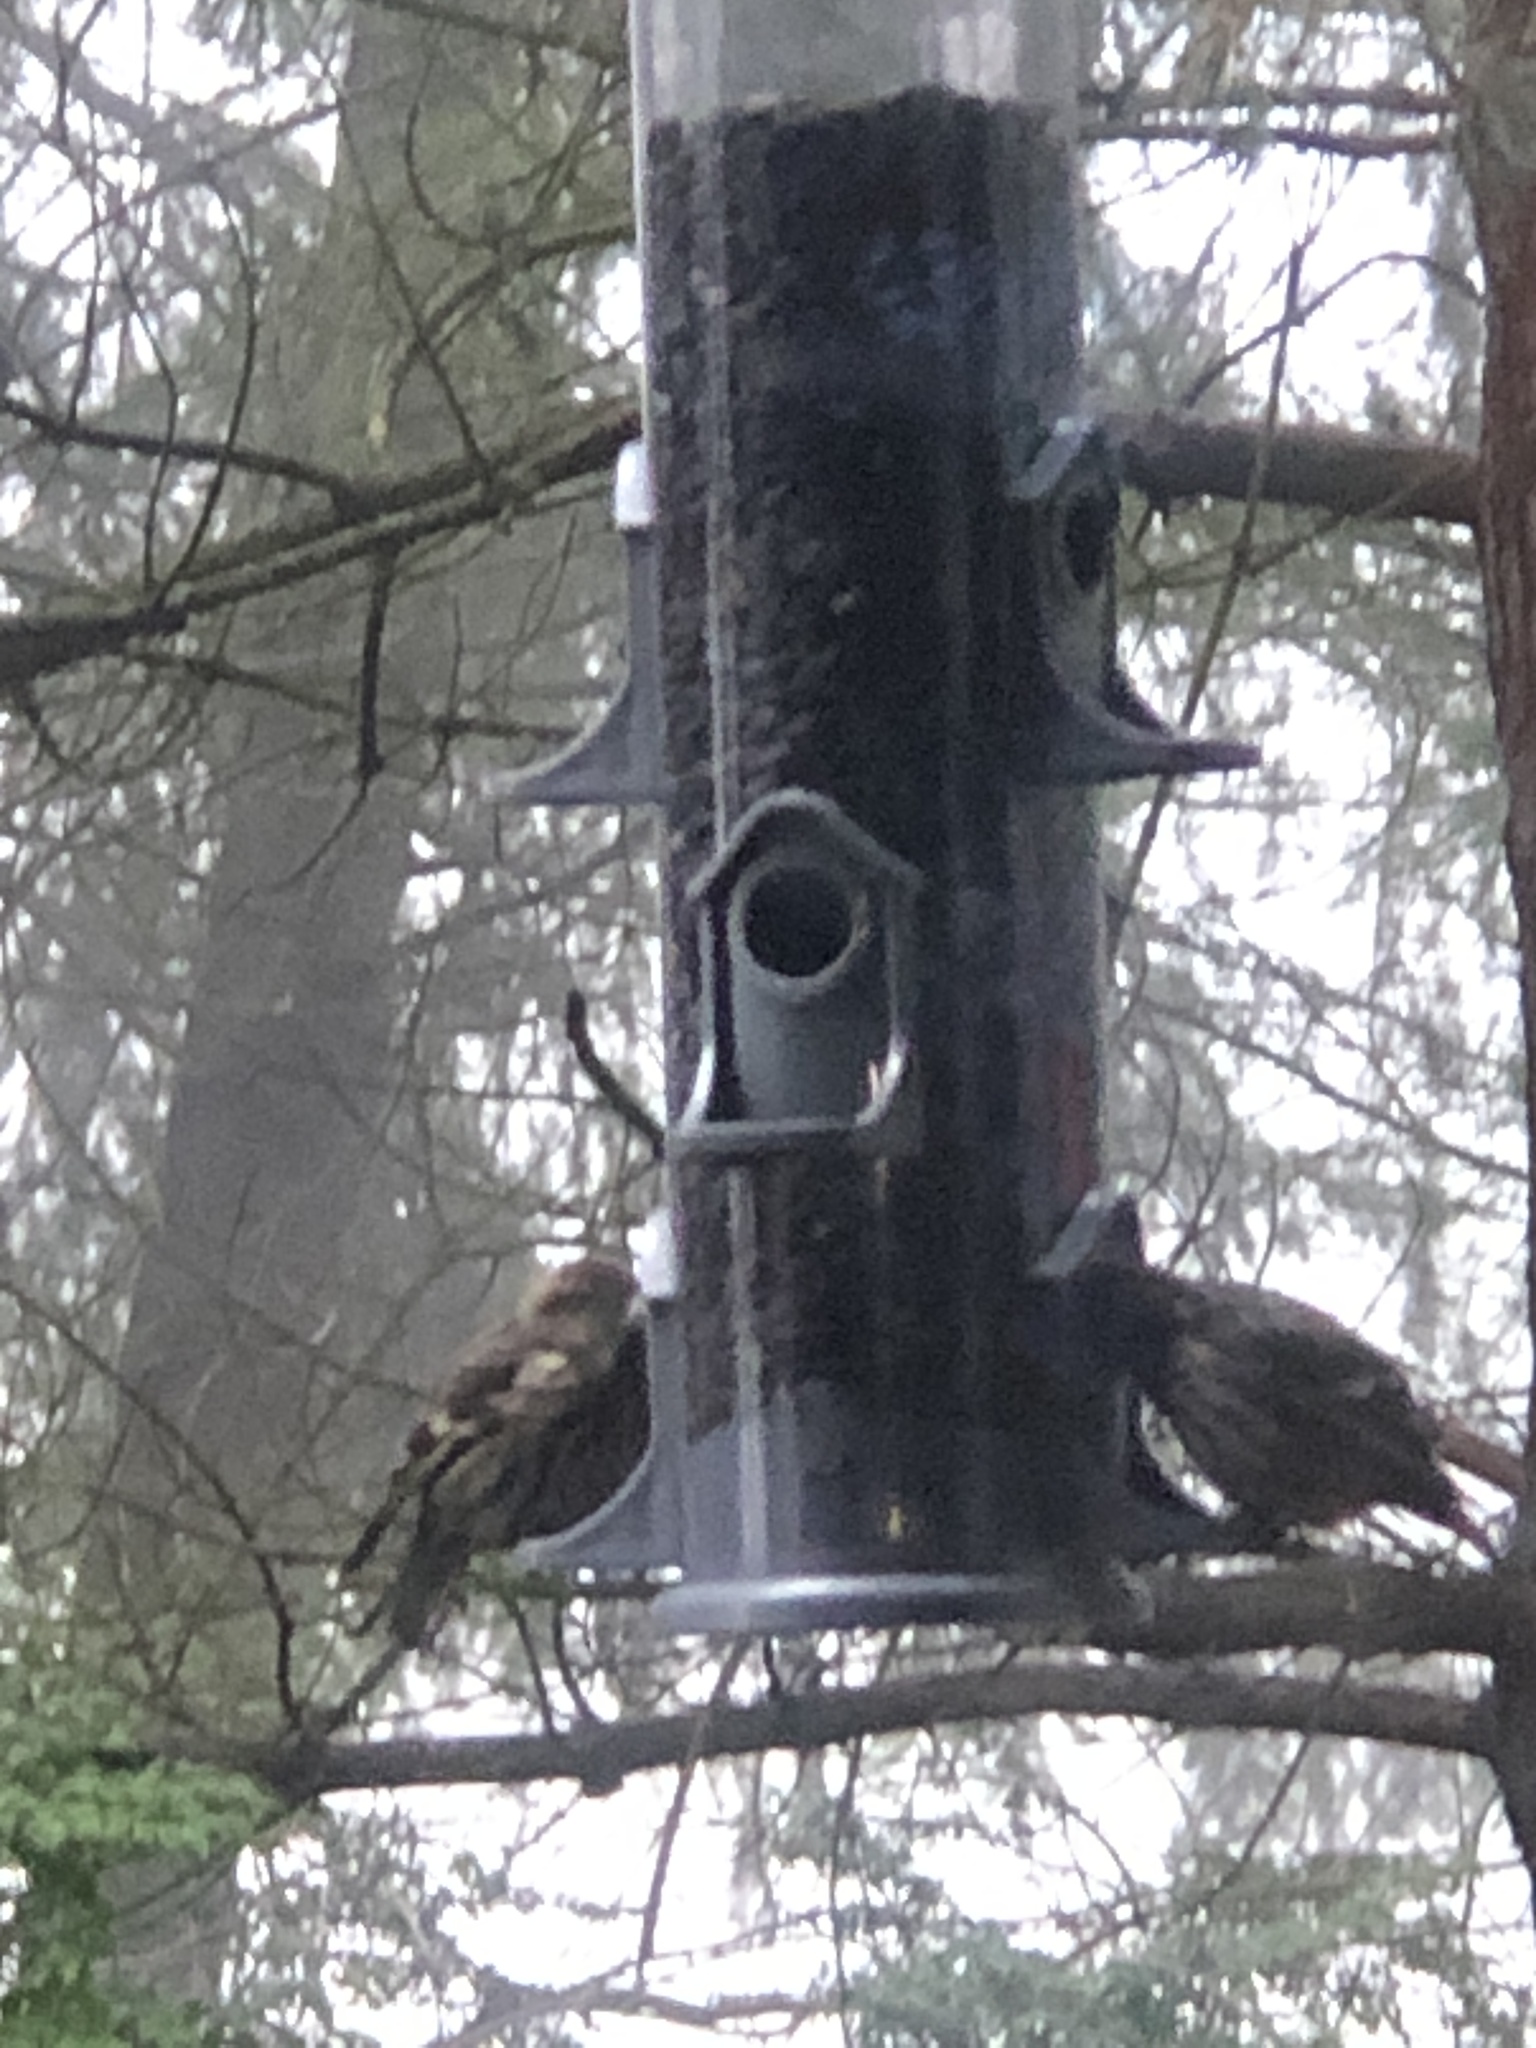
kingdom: Animalia
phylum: Chordata
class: Aves
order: Passeriformes
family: Fringillidae
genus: Spinus
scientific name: Spinus pinus
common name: Pine siskin
